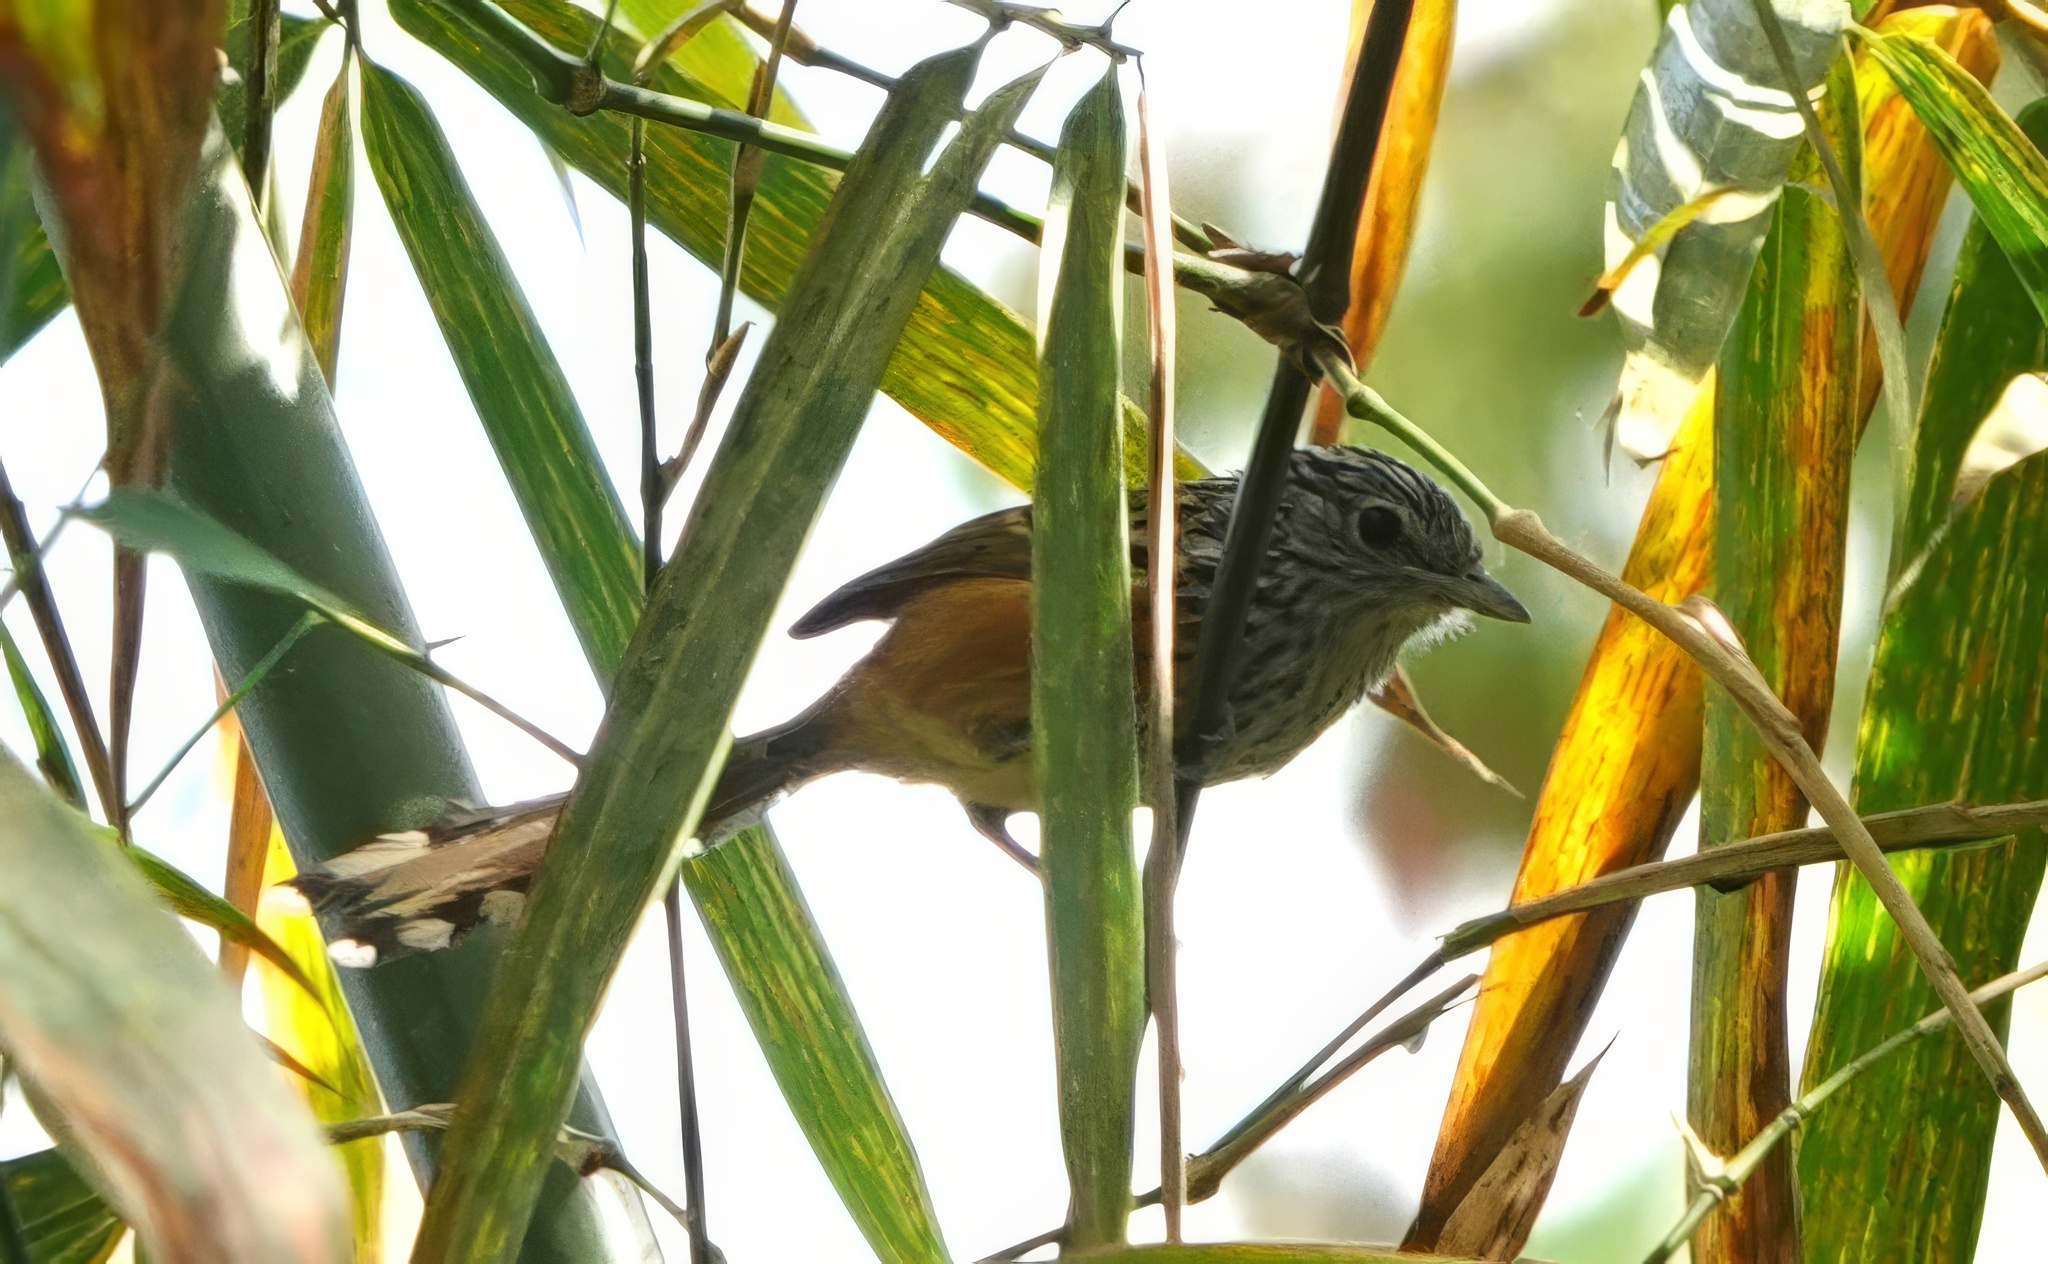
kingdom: Animalia
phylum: Chordata
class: Aves
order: Passeriformes
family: Thamnophilidae
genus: Drymophila
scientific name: Drymophila hellmayri
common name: Santa marta antbird
